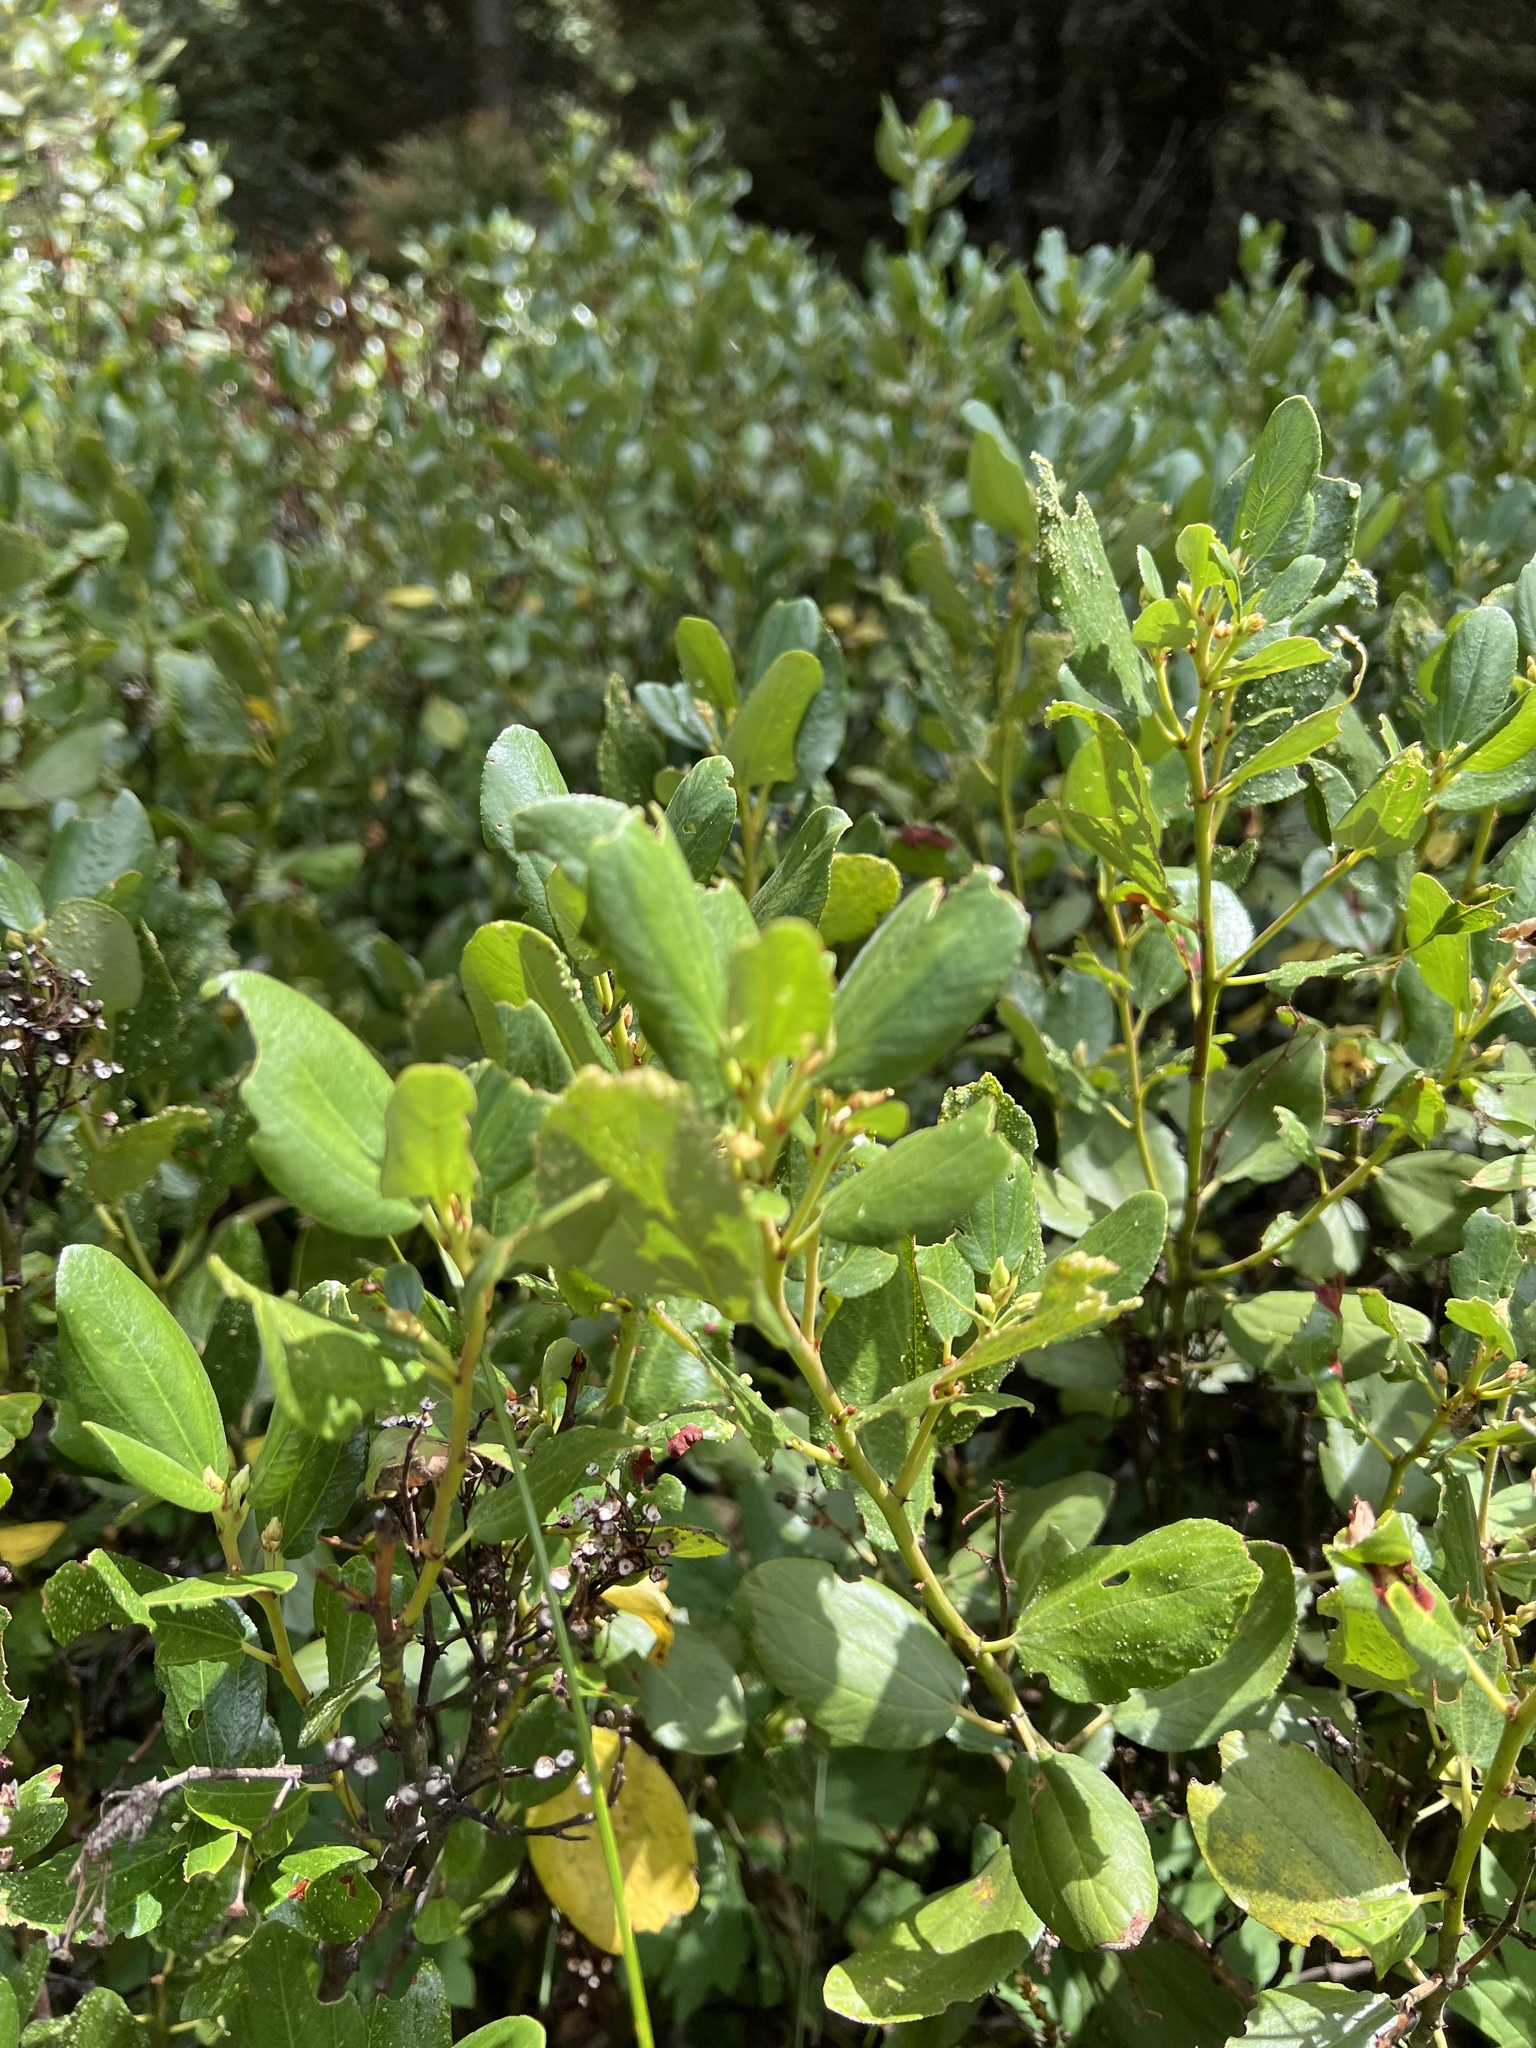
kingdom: Plantae
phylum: Tracheophyta
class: Magnoliopsida
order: Rosales
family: Rhamnaceae
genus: Ceanothus
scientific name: Ceanothus velutinus
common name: Snowbrush
